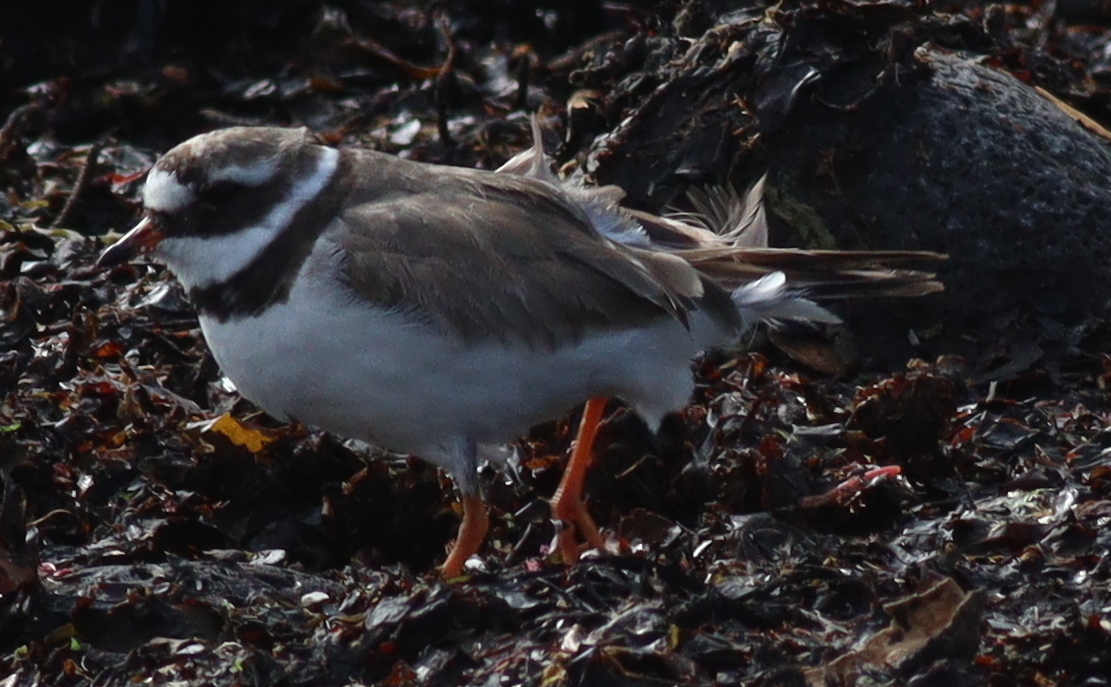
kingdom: Animalia
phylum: Chordata
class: Aves
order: Charadriiformes
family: Charadriidae
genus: Charadrius
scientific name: Charadrius hiaticula
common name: Common ringed plover
